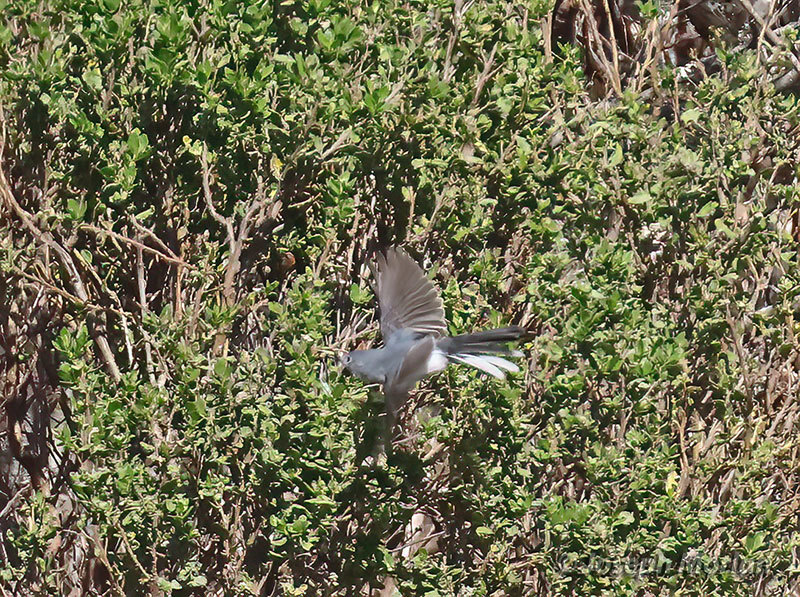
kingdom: Animalia
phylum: Chordata
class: Aves
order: Passeriformes
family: Polioptilidae
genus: Polioptila
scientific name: Polioptila caerulea
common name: Blue-gray gnatcatcher
